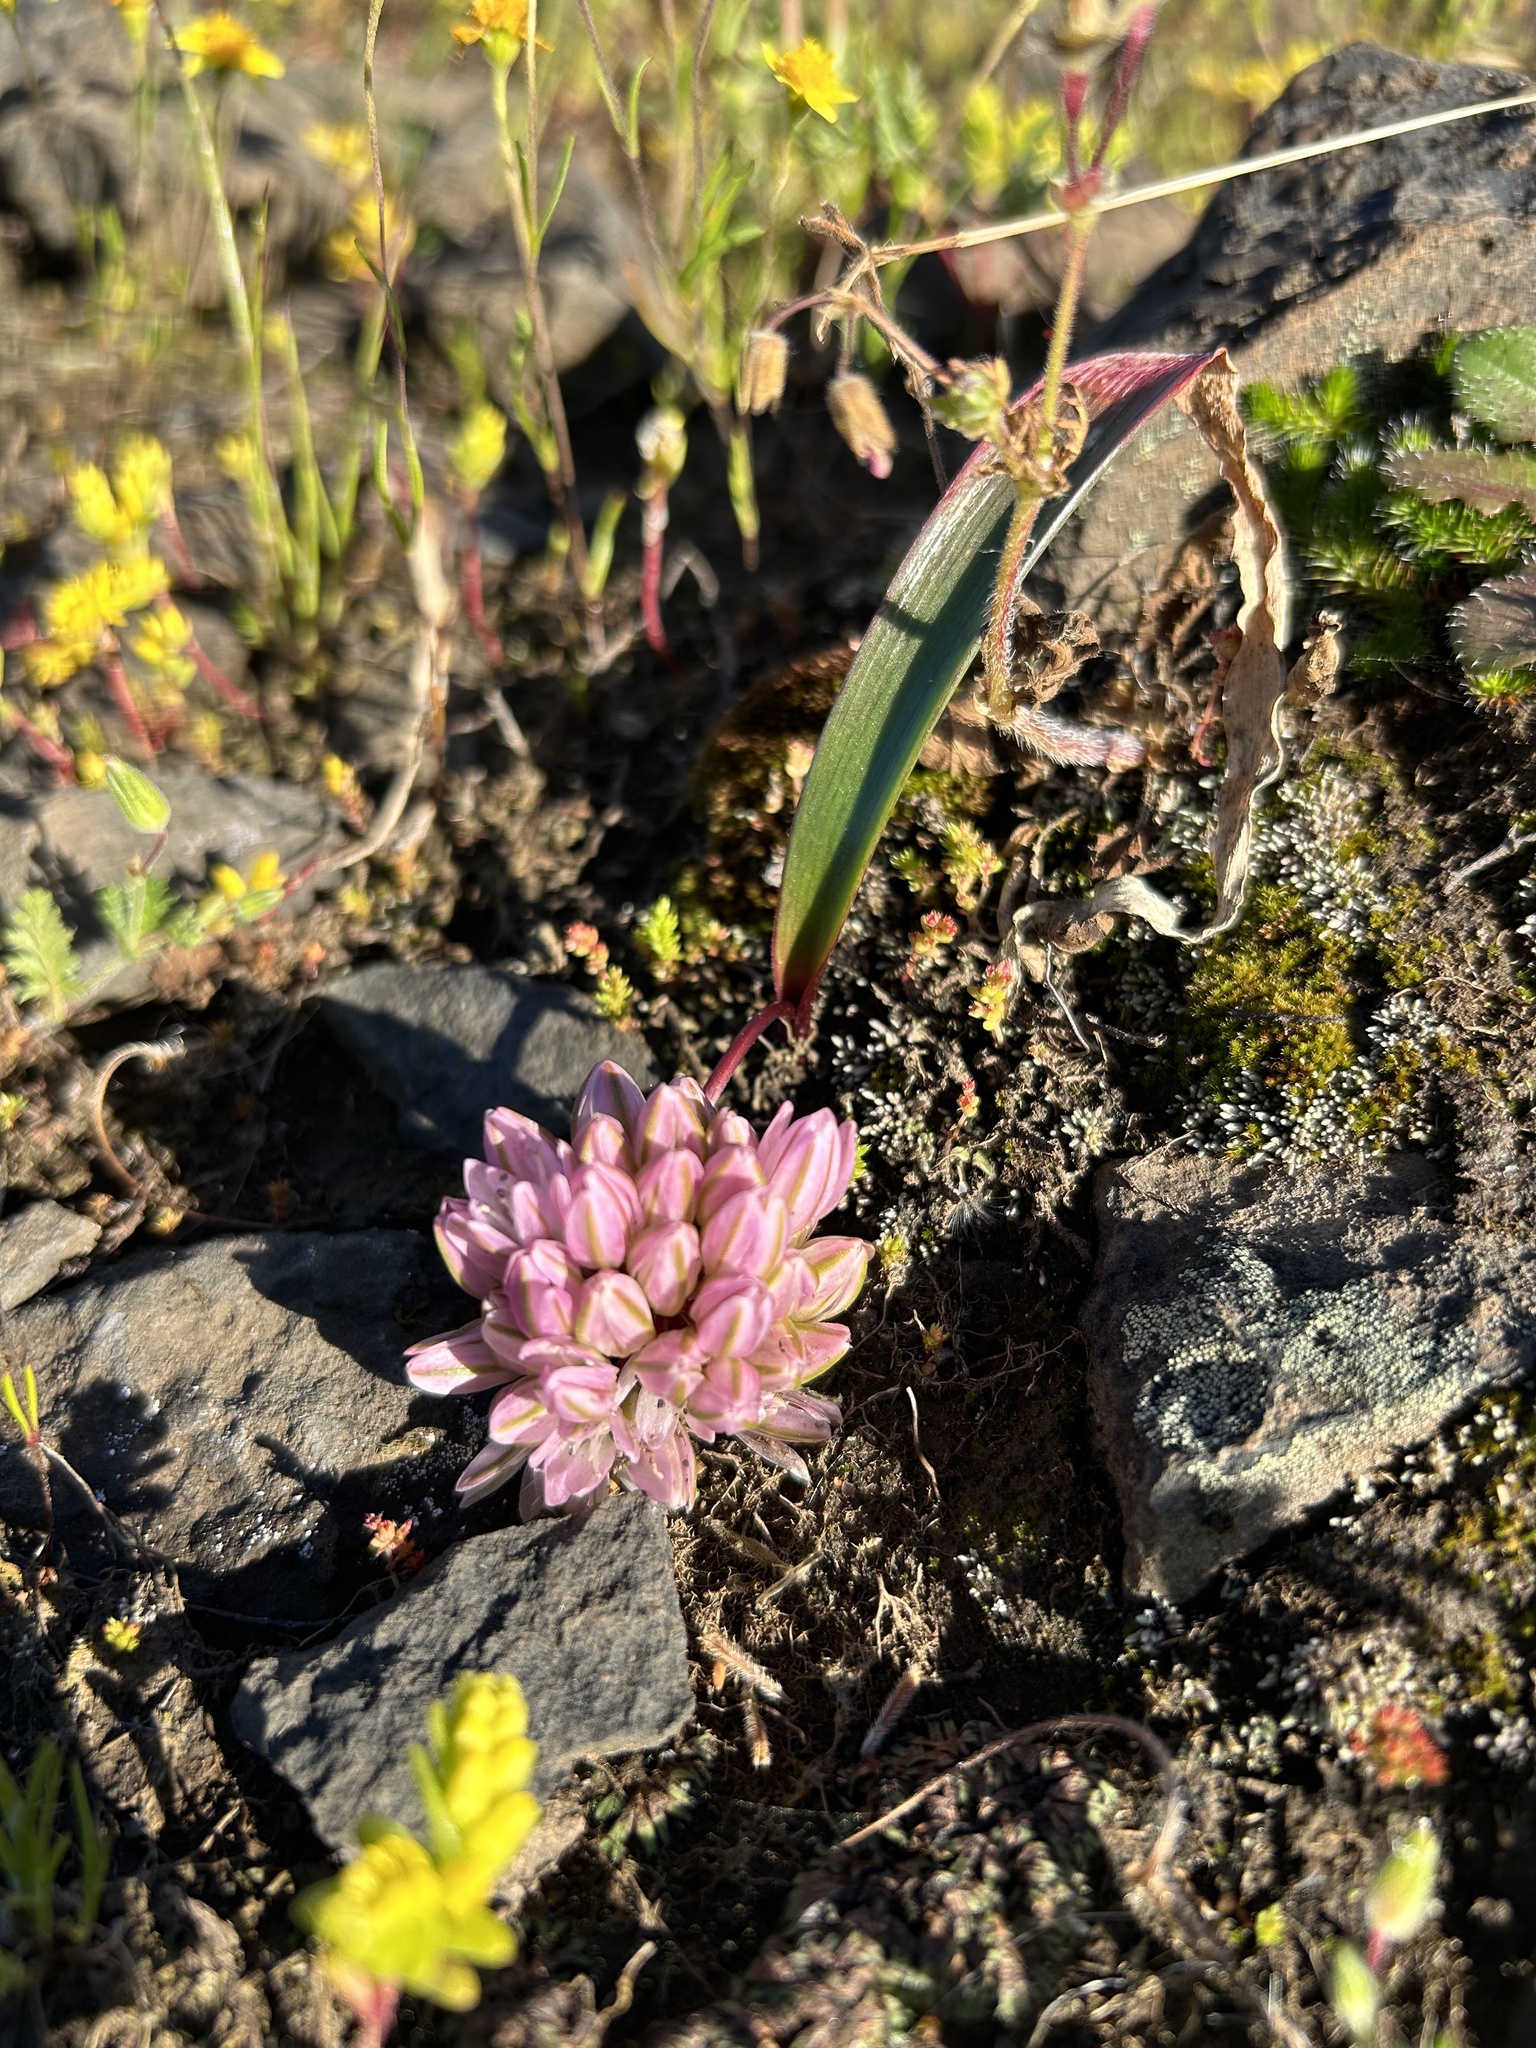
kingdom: Plantae
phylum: Tracheophyta
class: Liliopsida
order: Asparagales
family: Amaryllidaceae
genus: Allium
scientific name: Allium cratericola
